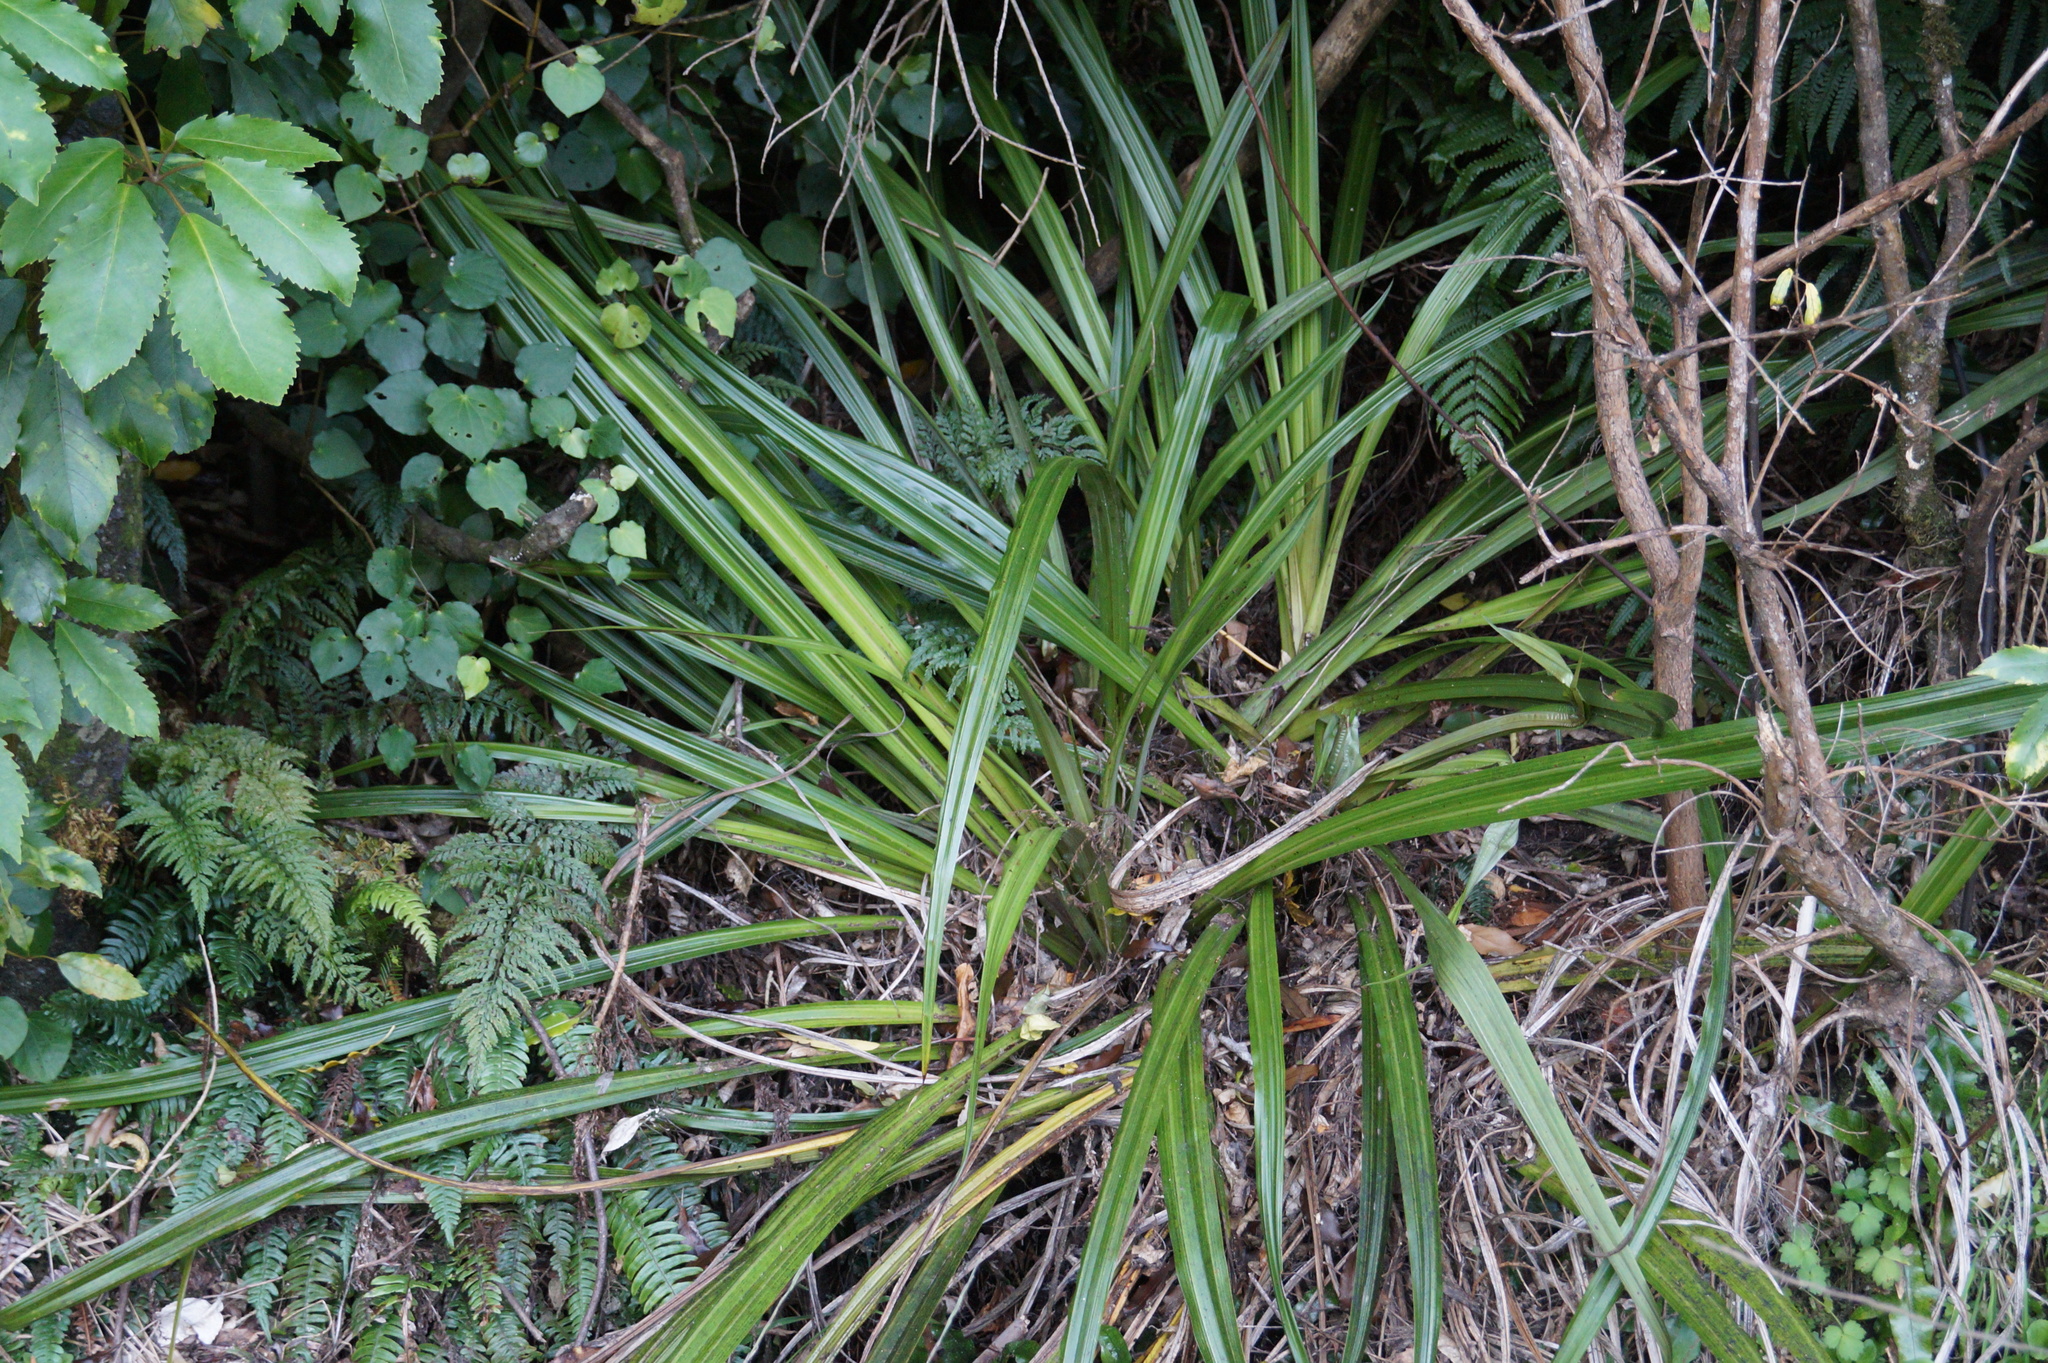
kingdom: Plantae
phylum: Tracheophyta
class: Liliopsida
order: Asparagales
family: Asteliaceae
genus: Astelia
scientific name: Astelia fragrans
